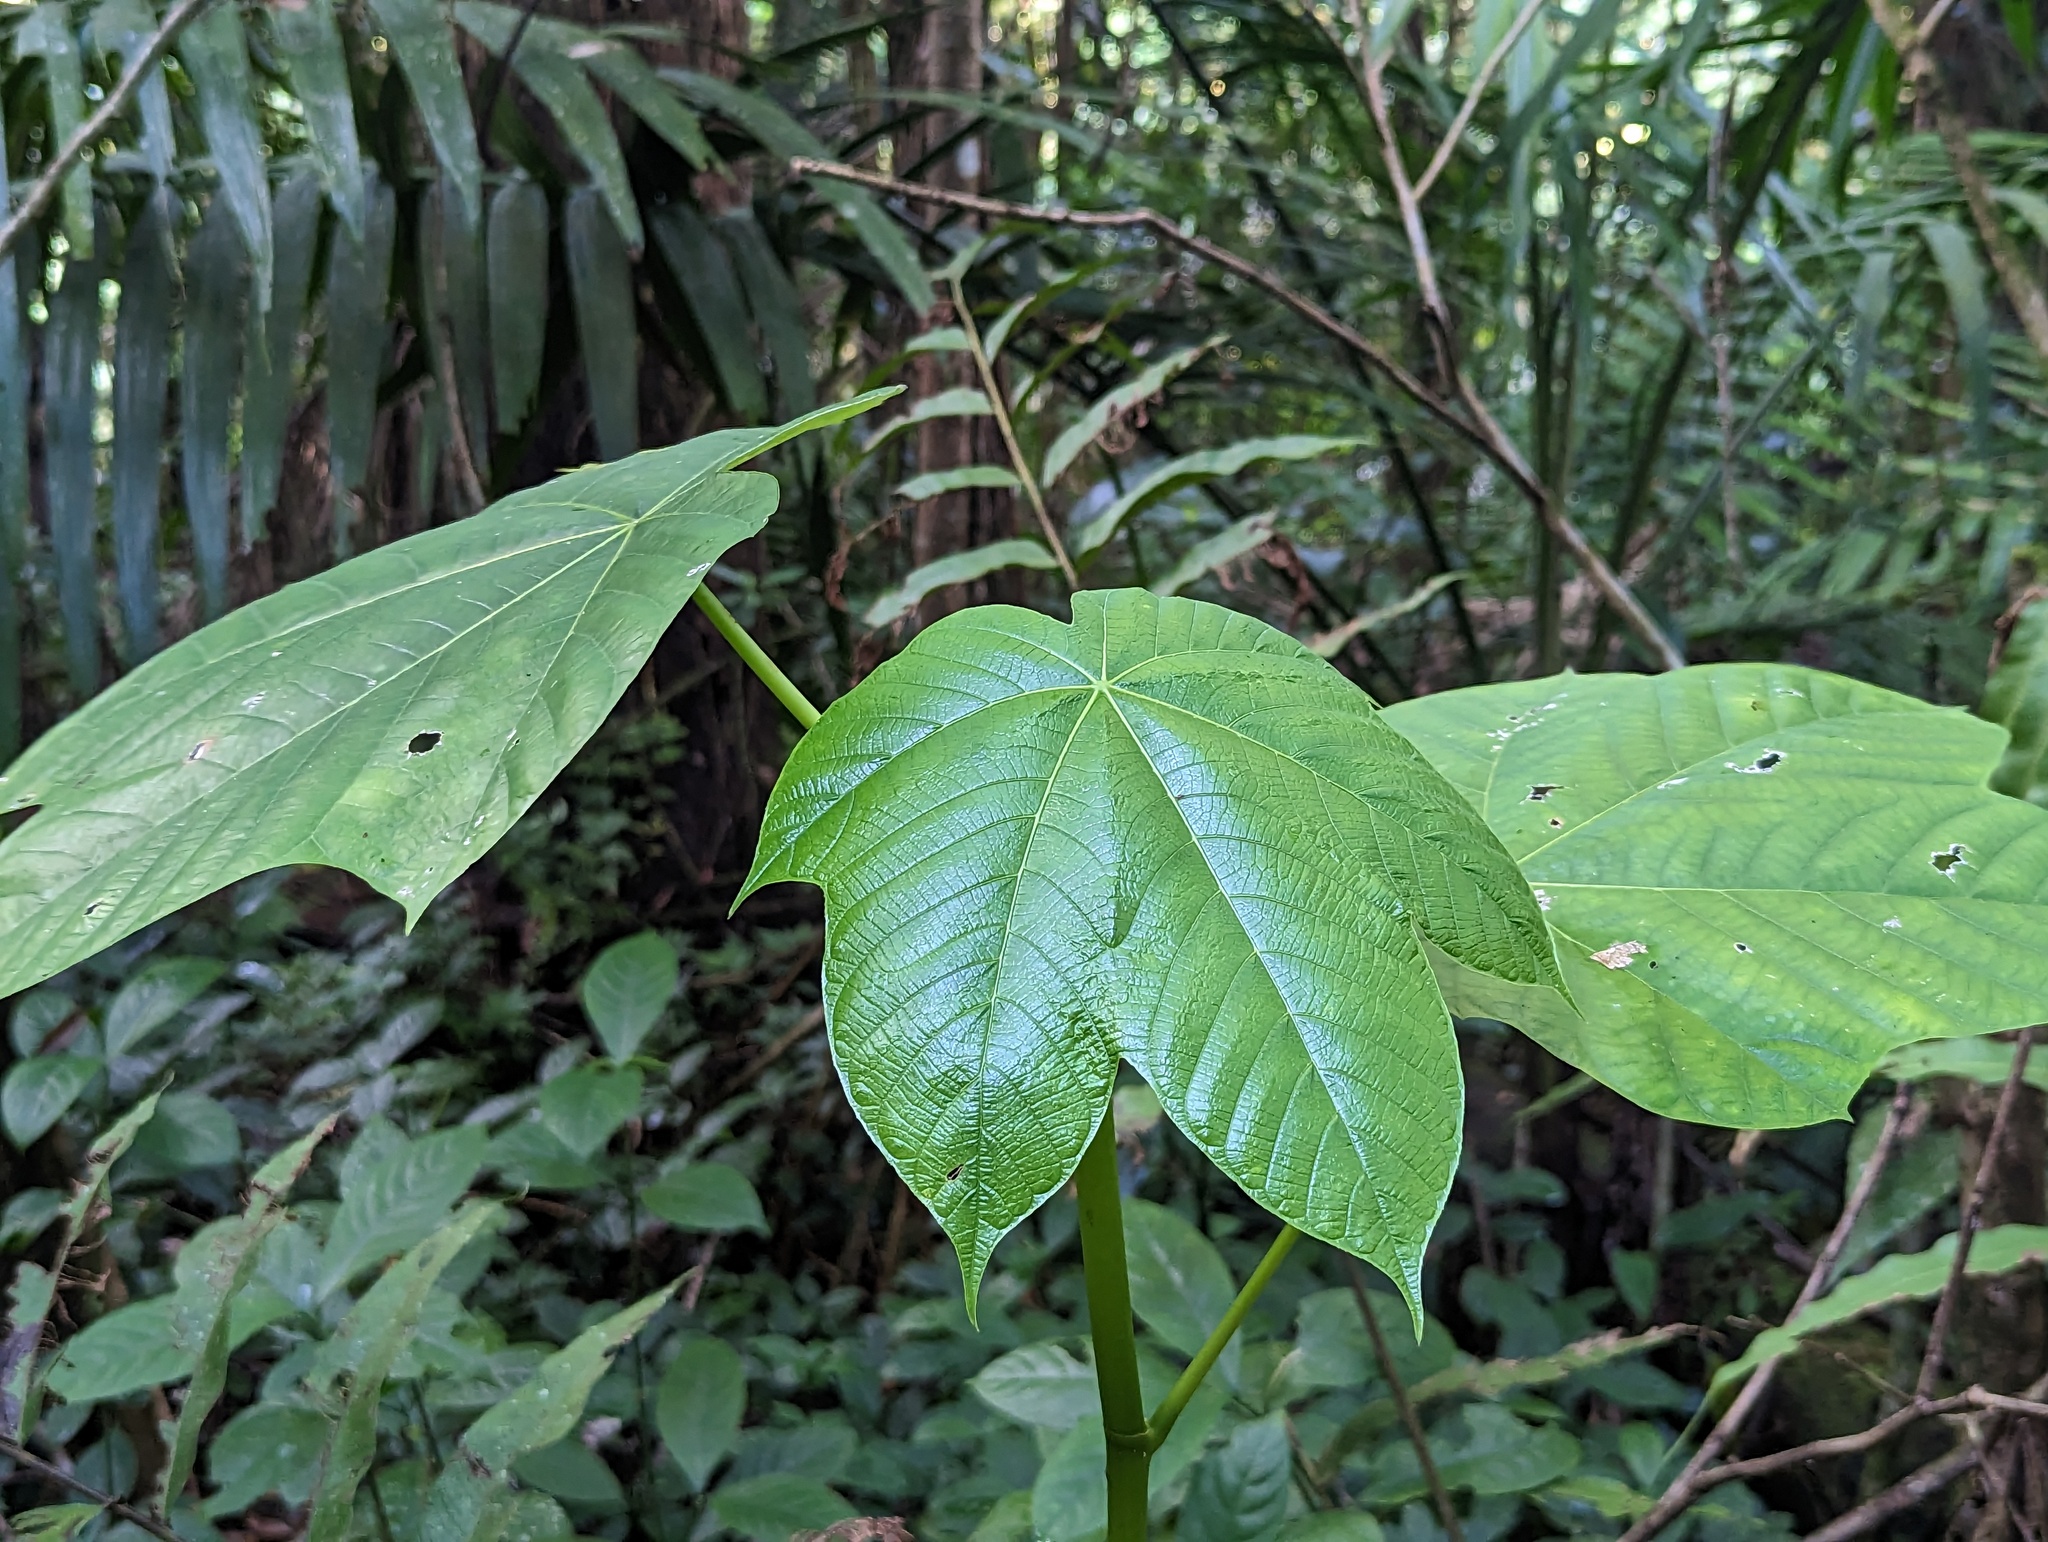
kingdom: Plantae
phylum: Tracheophyta
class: Magnoliopsida
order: Rosales
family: Urticaceae
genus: Cecropia
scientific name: Cecropia schreberiana
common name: Trumpet tree
